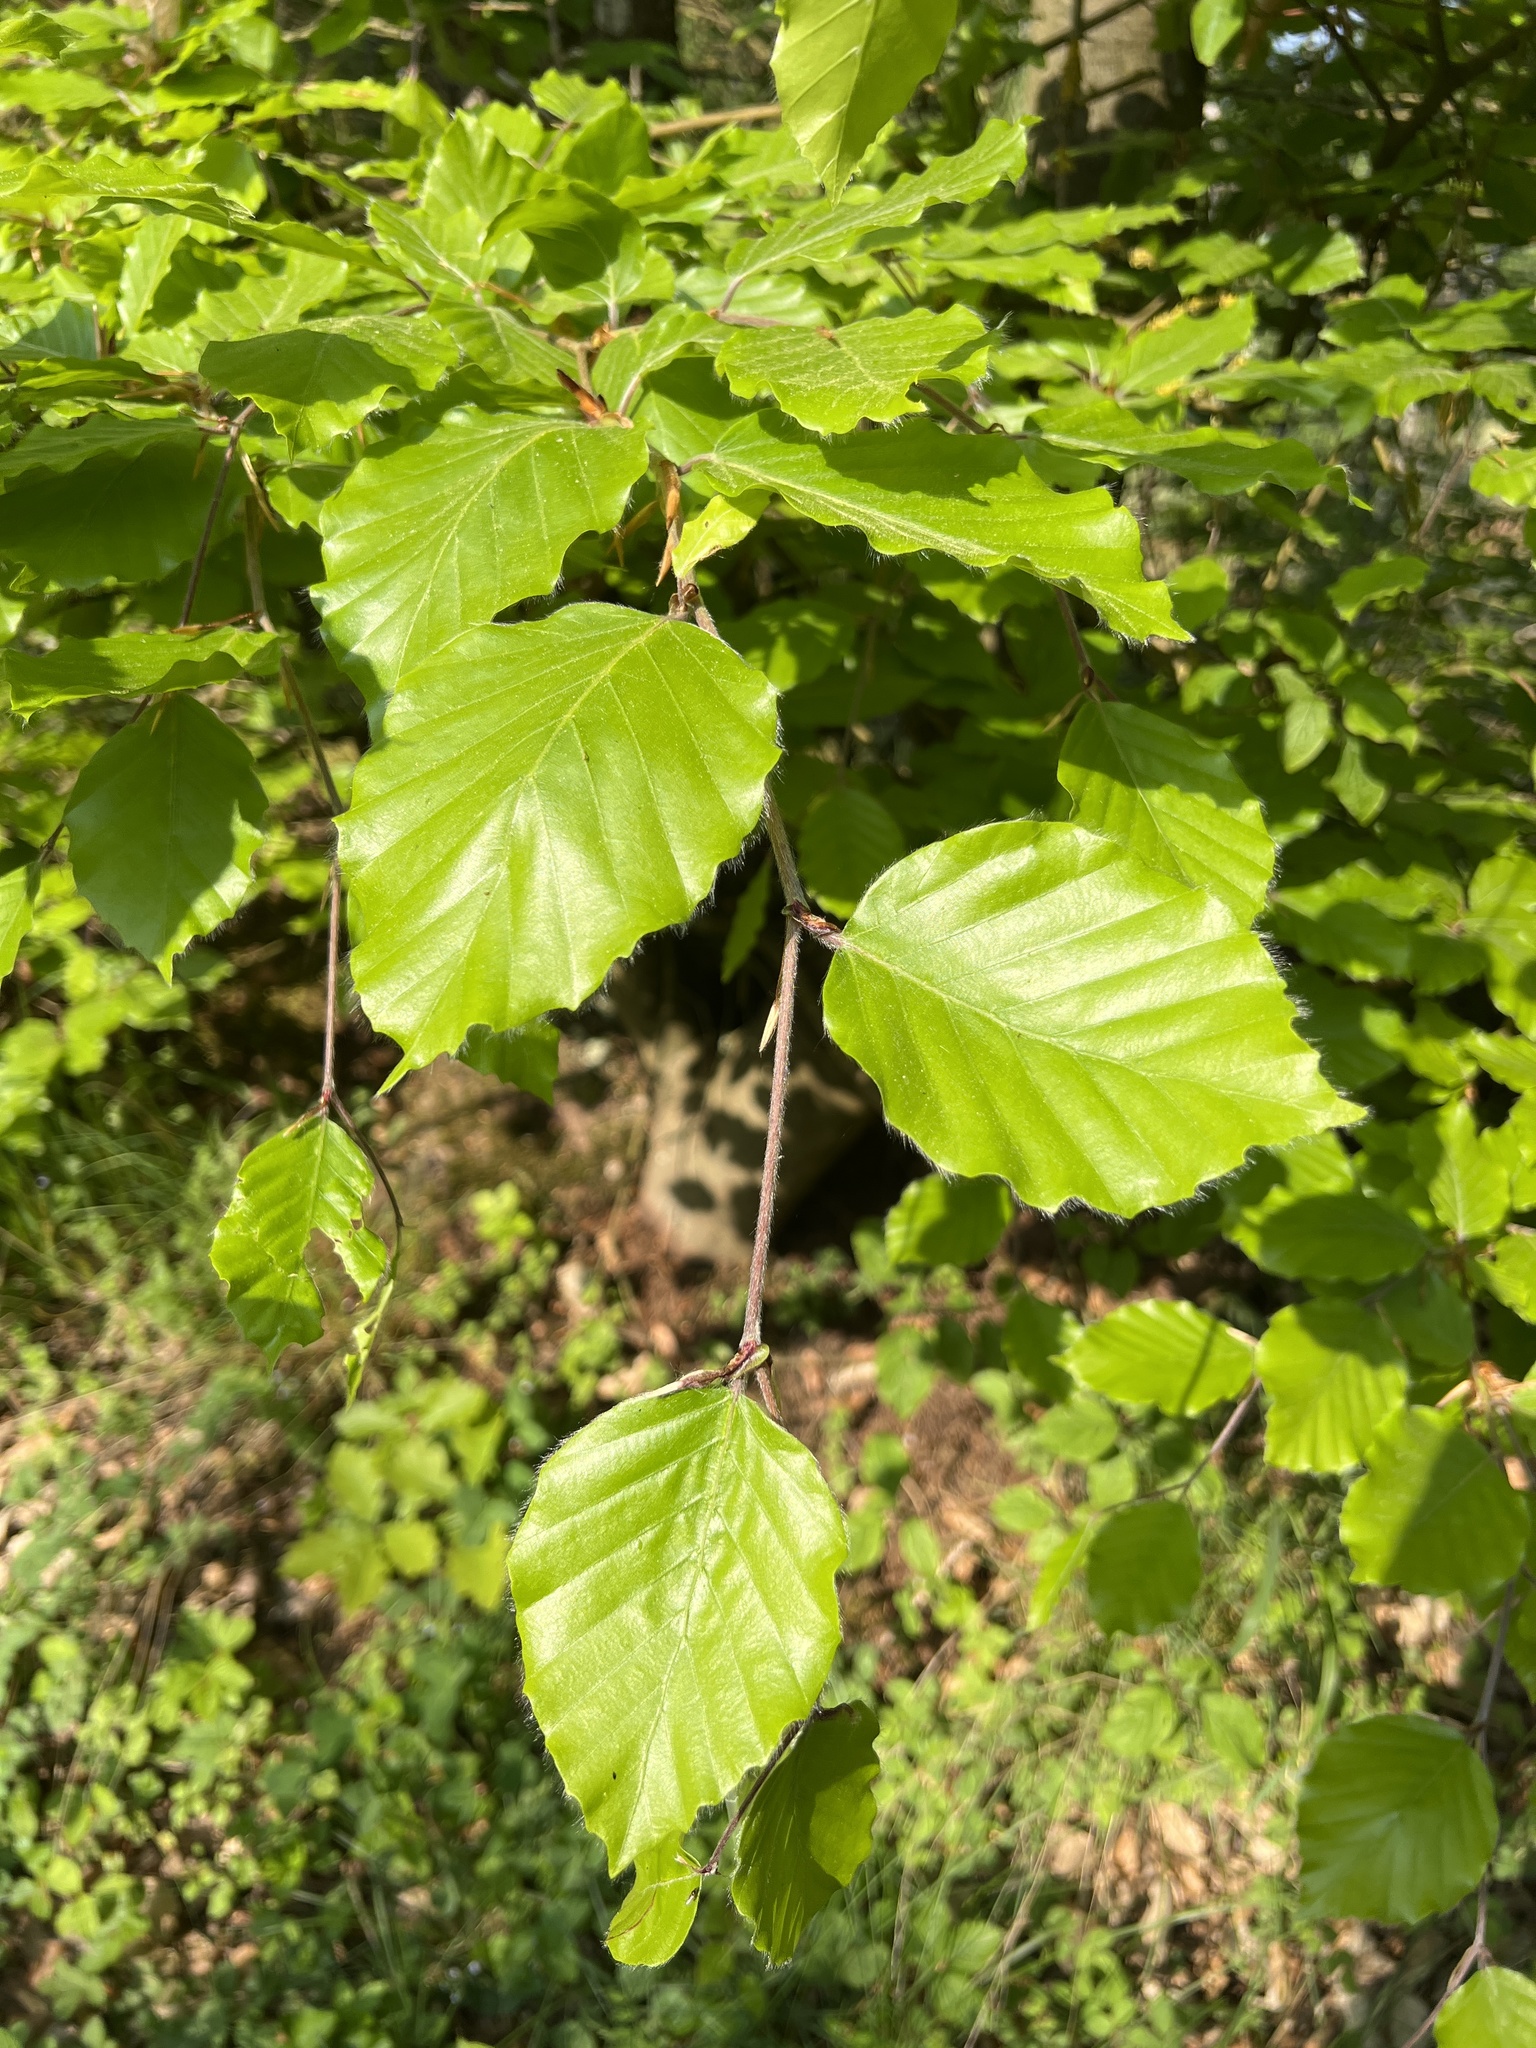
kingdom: Plantae
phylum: Tracheophyta
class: Magnoliopsida
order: Fagales
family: Fagaceae
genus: Fagus
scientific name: Fagus sylvatica
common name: Beech
